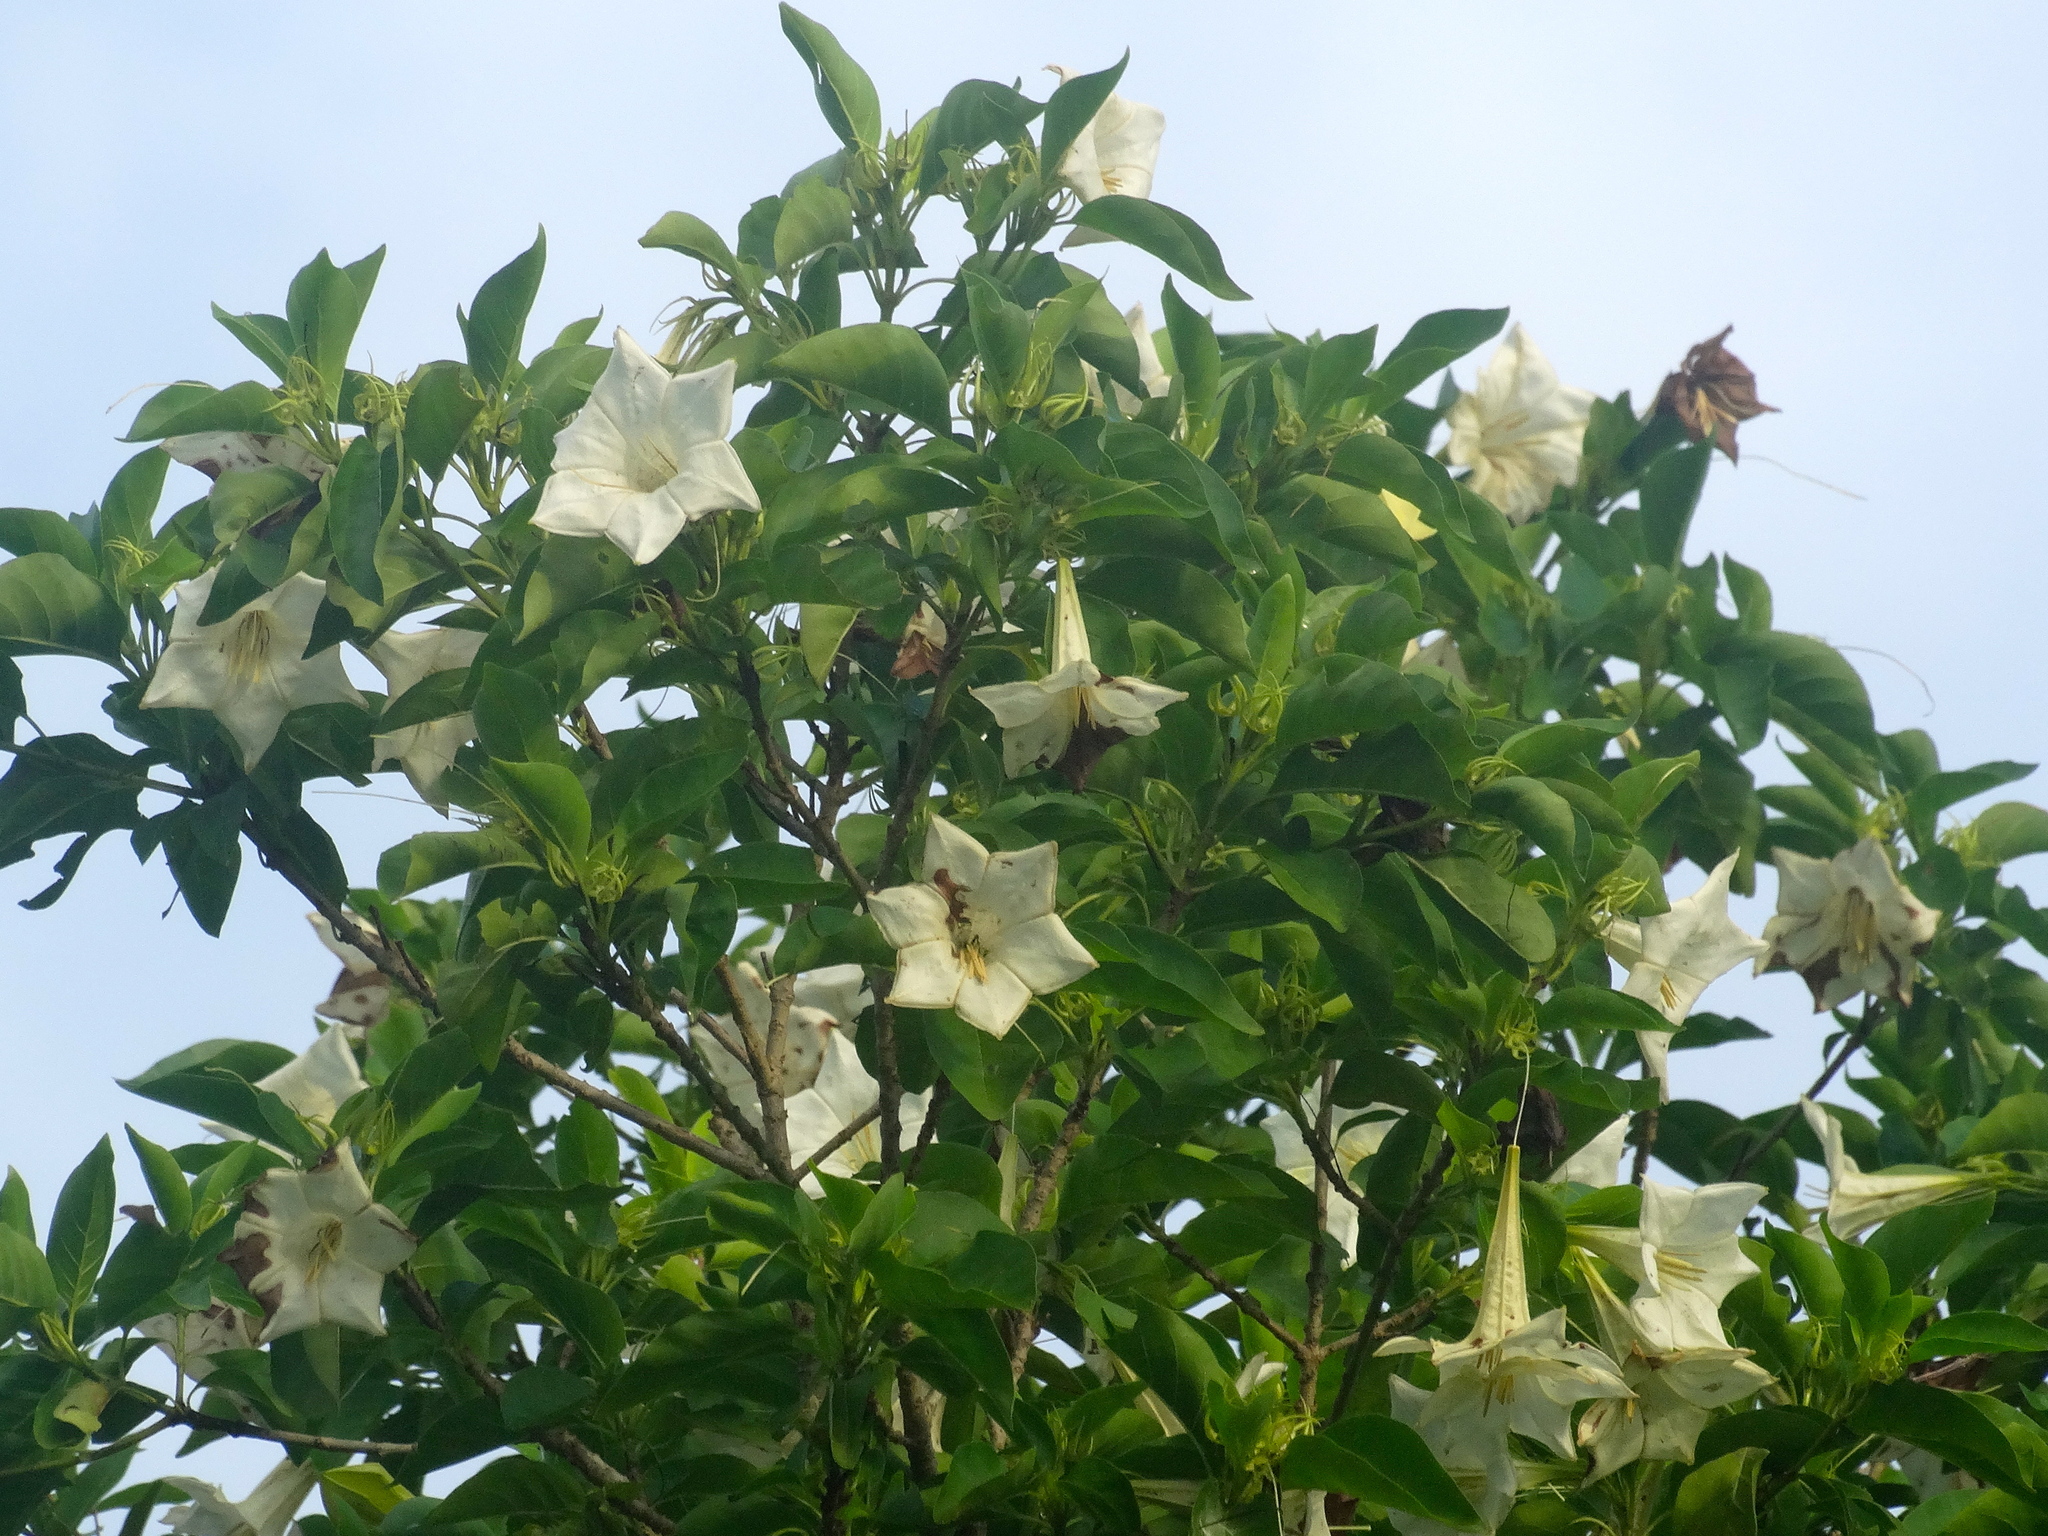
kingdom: Plantae
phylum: Tracheophyta
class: Magnoliopsida
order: Gentianales
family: Rubiaceae
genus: Hintonia
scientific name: Hintonia latiflora
